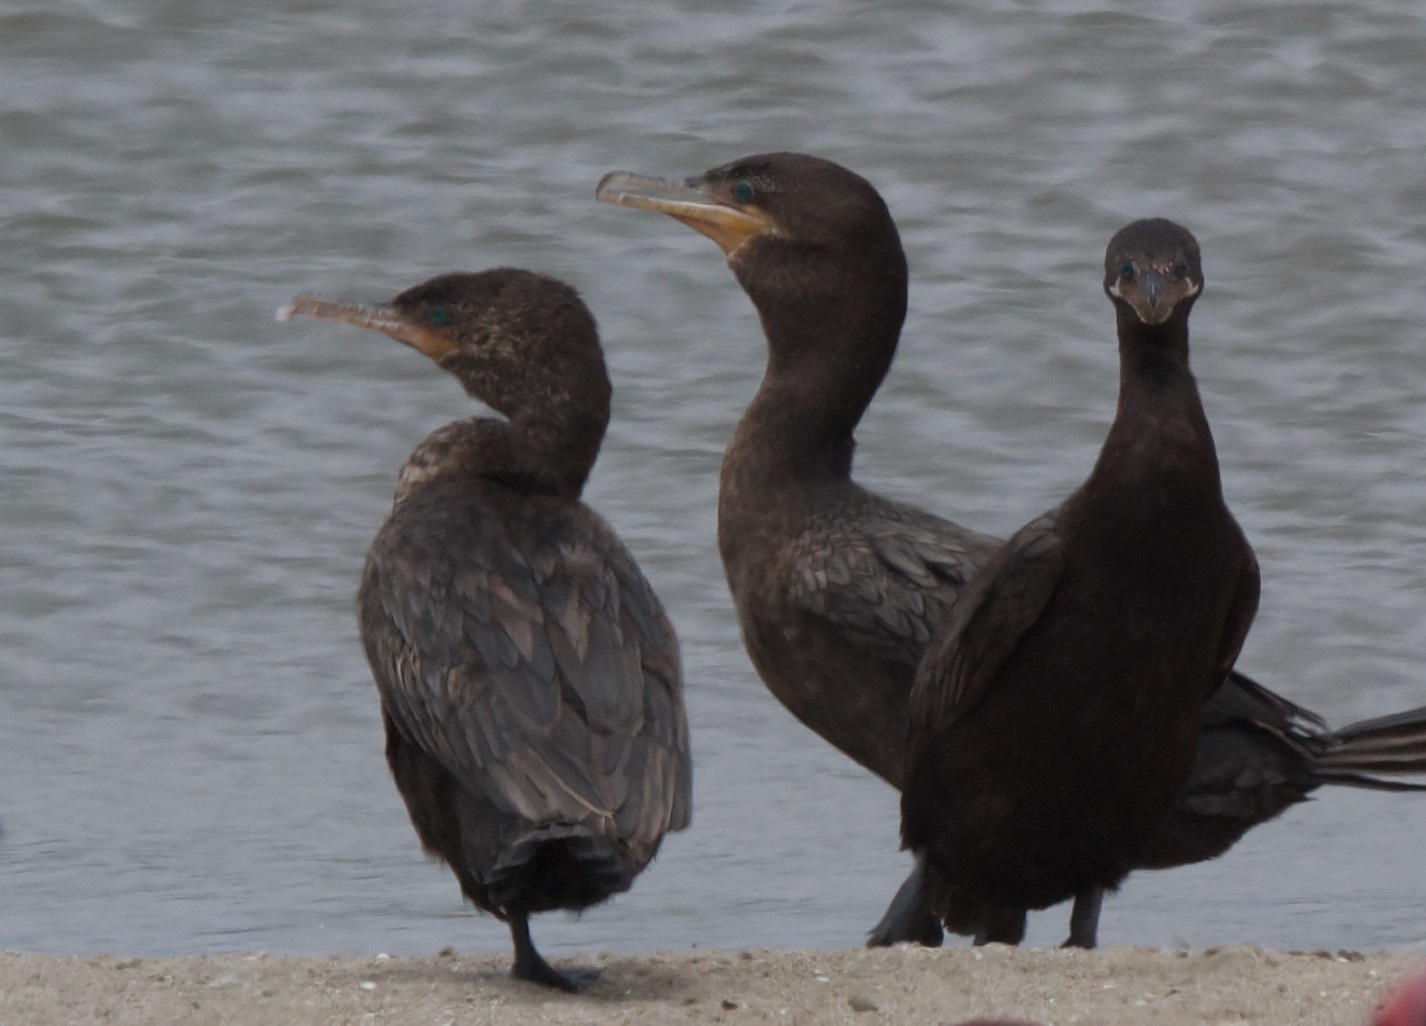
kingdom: Animalia
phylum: Chordata
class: Aves
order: Suliformes
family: Phalacrocoracidae
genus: Phalacrocorax
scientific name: Phalacrocorax brasilianus
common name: Neotropic cormorant
